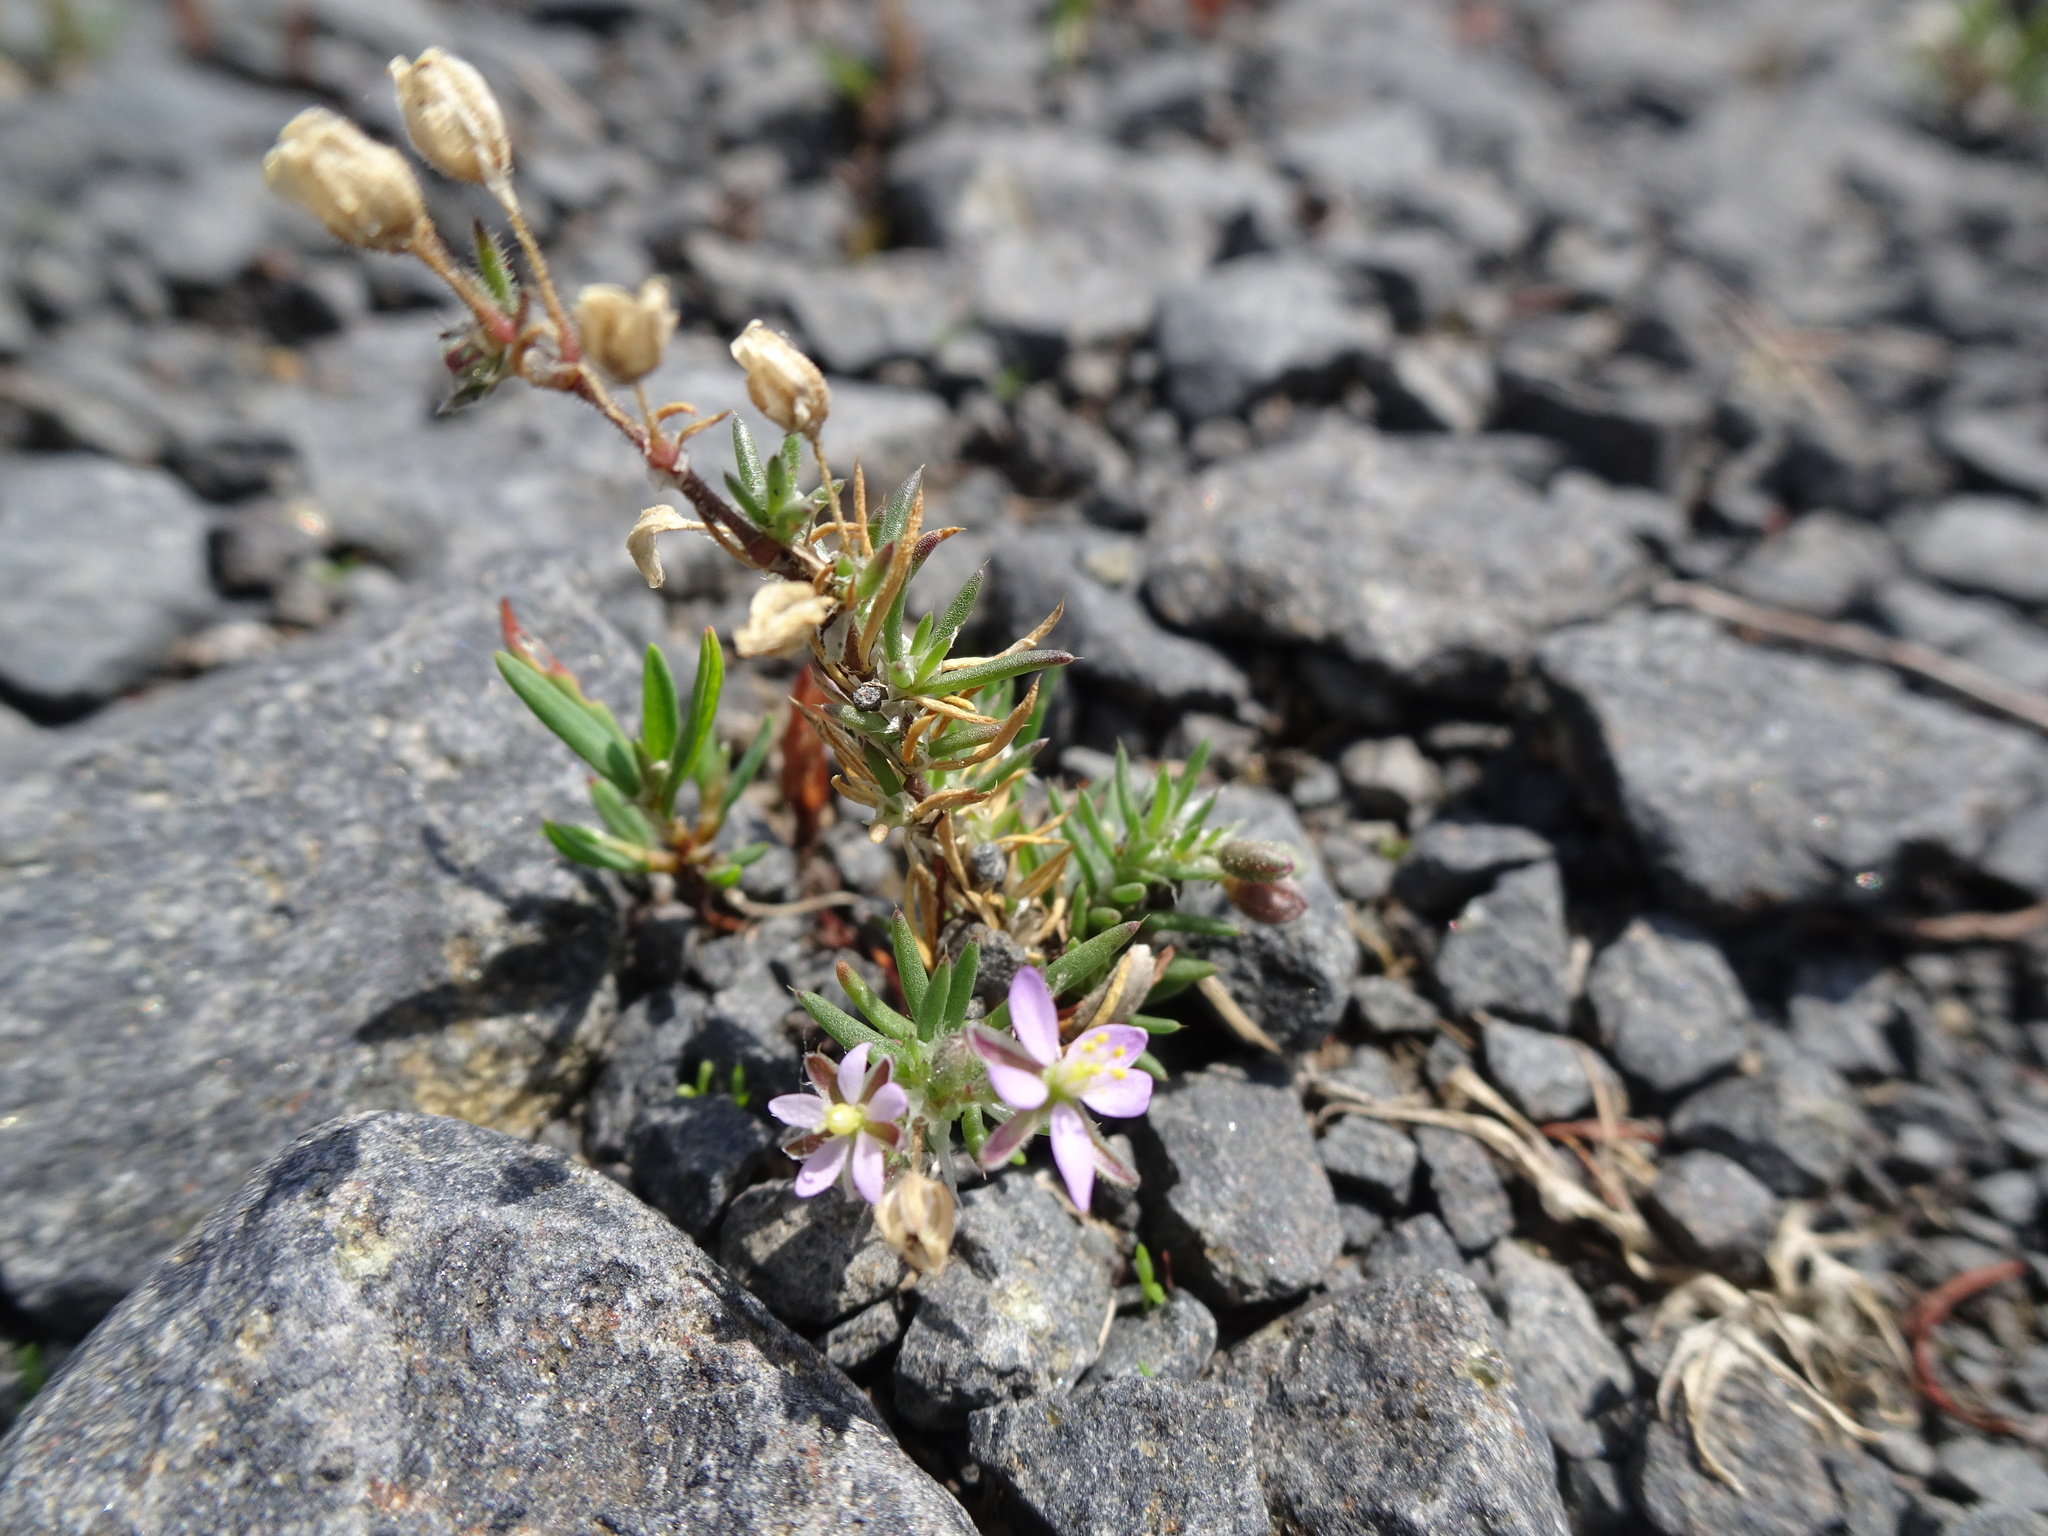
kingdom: Plantae
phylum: Tracheophyta
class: Magnoliopsida
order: Caryophyllales
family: Caryophyllaceae
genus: Spergularia
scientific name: Spergularia rubra
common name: Red sand-spurrey
